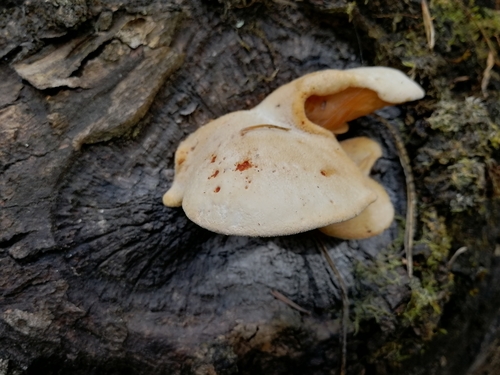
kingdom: Fungi
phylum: Basidiomycota
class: Agaricomycetes
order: Polyporales
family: Polyporaceae
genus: Lentinus
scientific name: Lentinus pilososquamulosus
